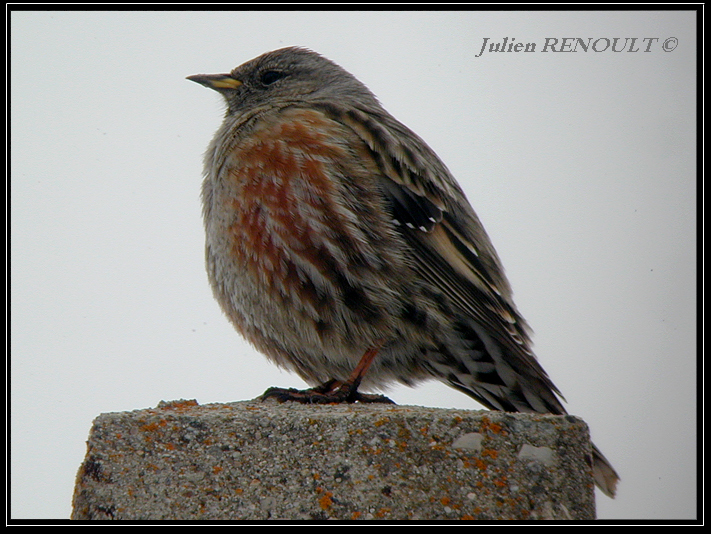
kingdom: Animalia
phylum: Chordata
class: Aves
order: Passeriformes
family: Prunellidae
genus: Prunella
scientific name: Prunella collaris
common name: Alpine accentor
